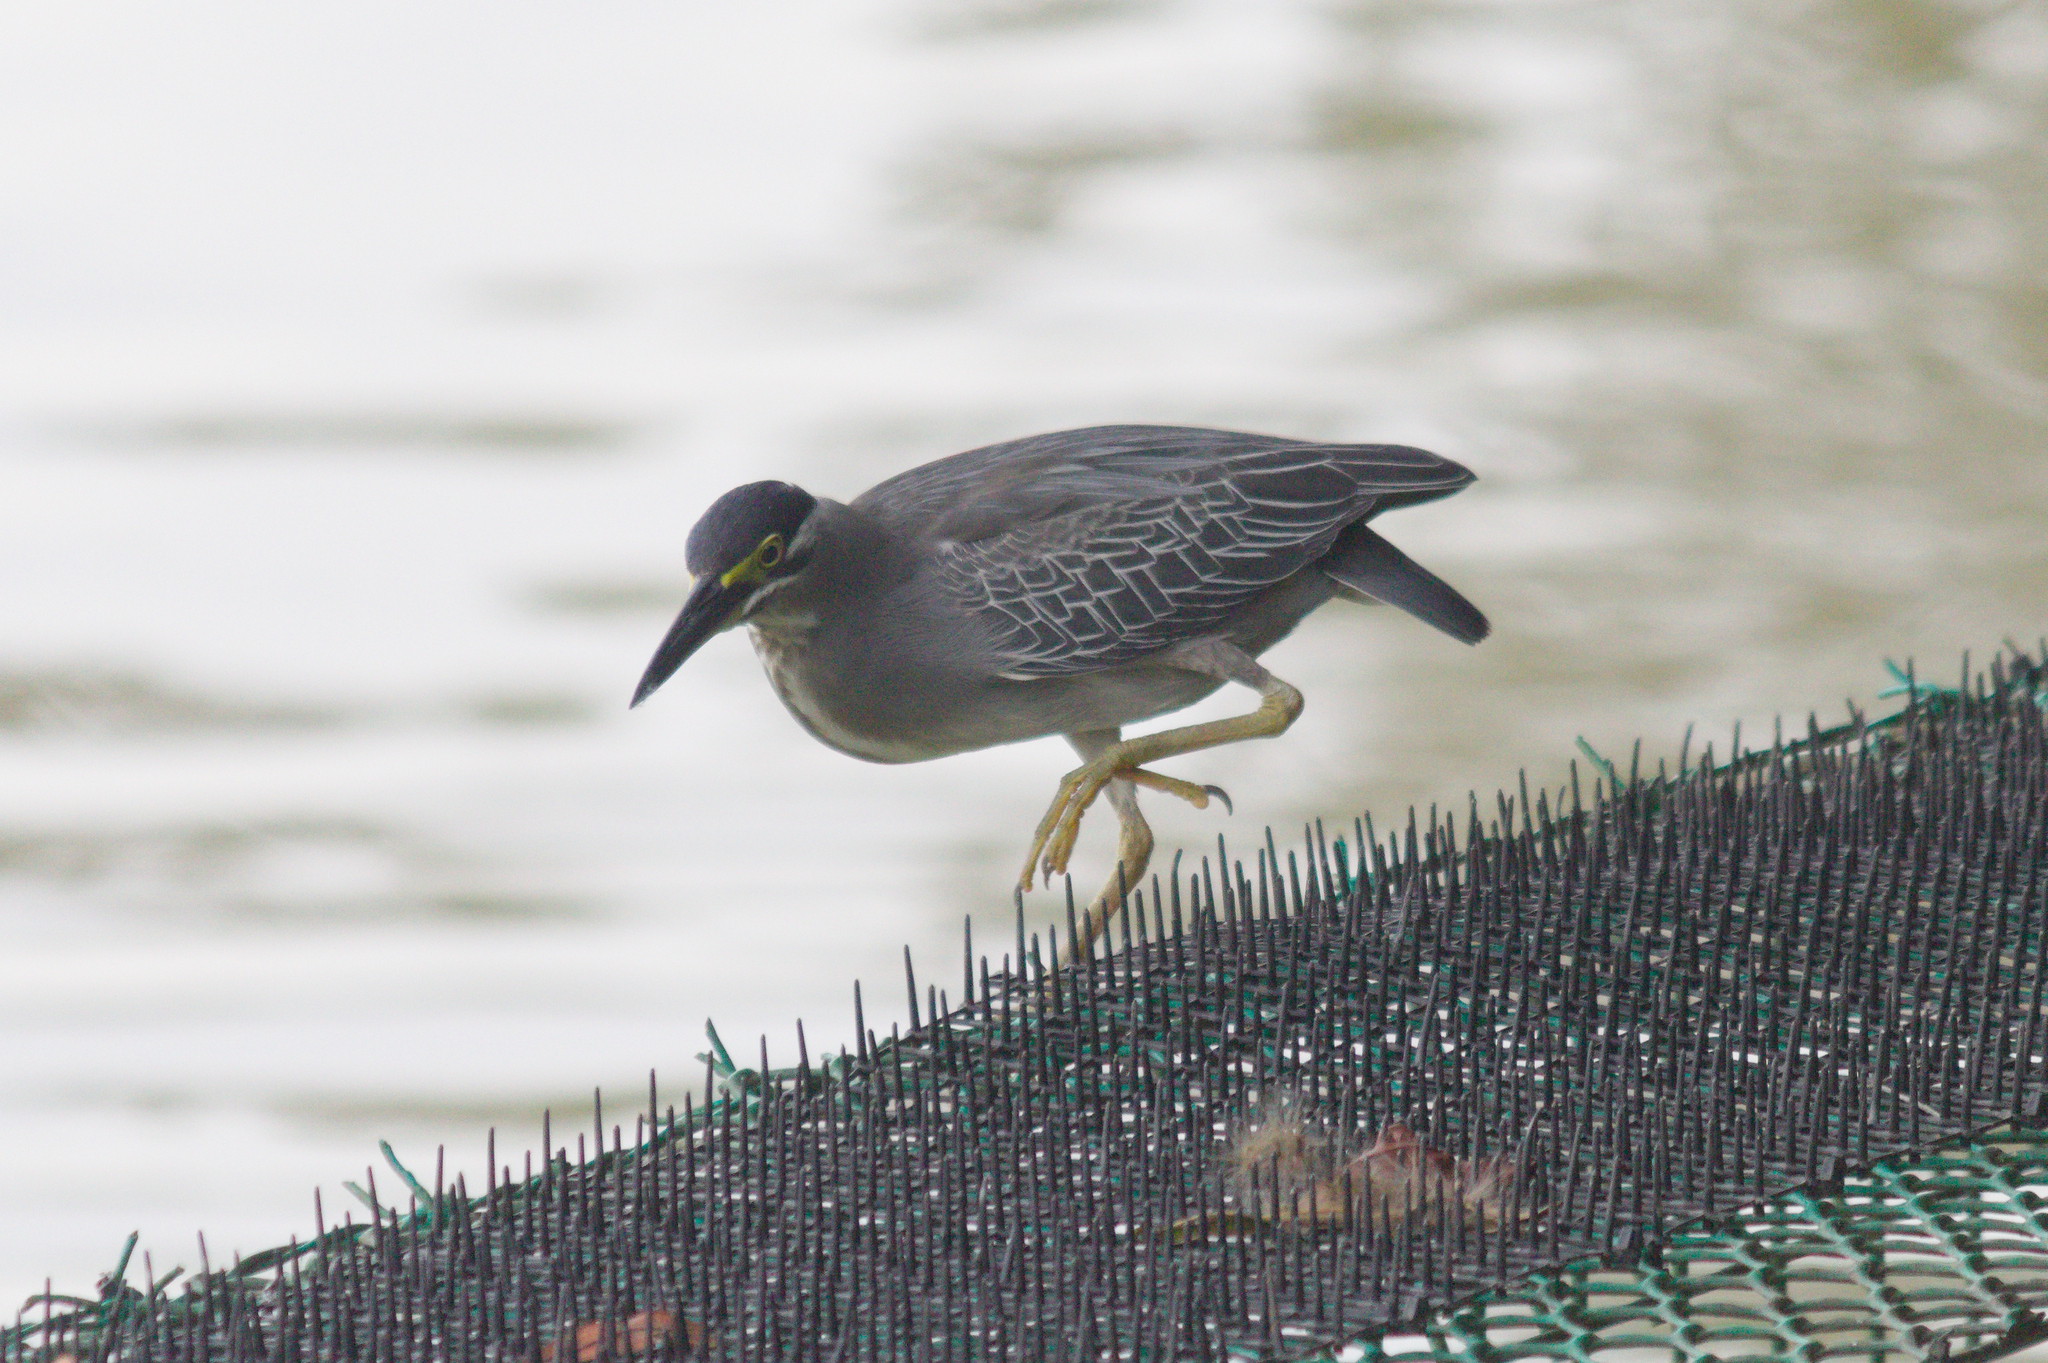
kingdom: Animalia
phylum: Chordata
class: Aves
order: Pelecaniformes
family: Ardeidae
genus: Butorides
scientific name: Butorides striata
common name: Striated heron
